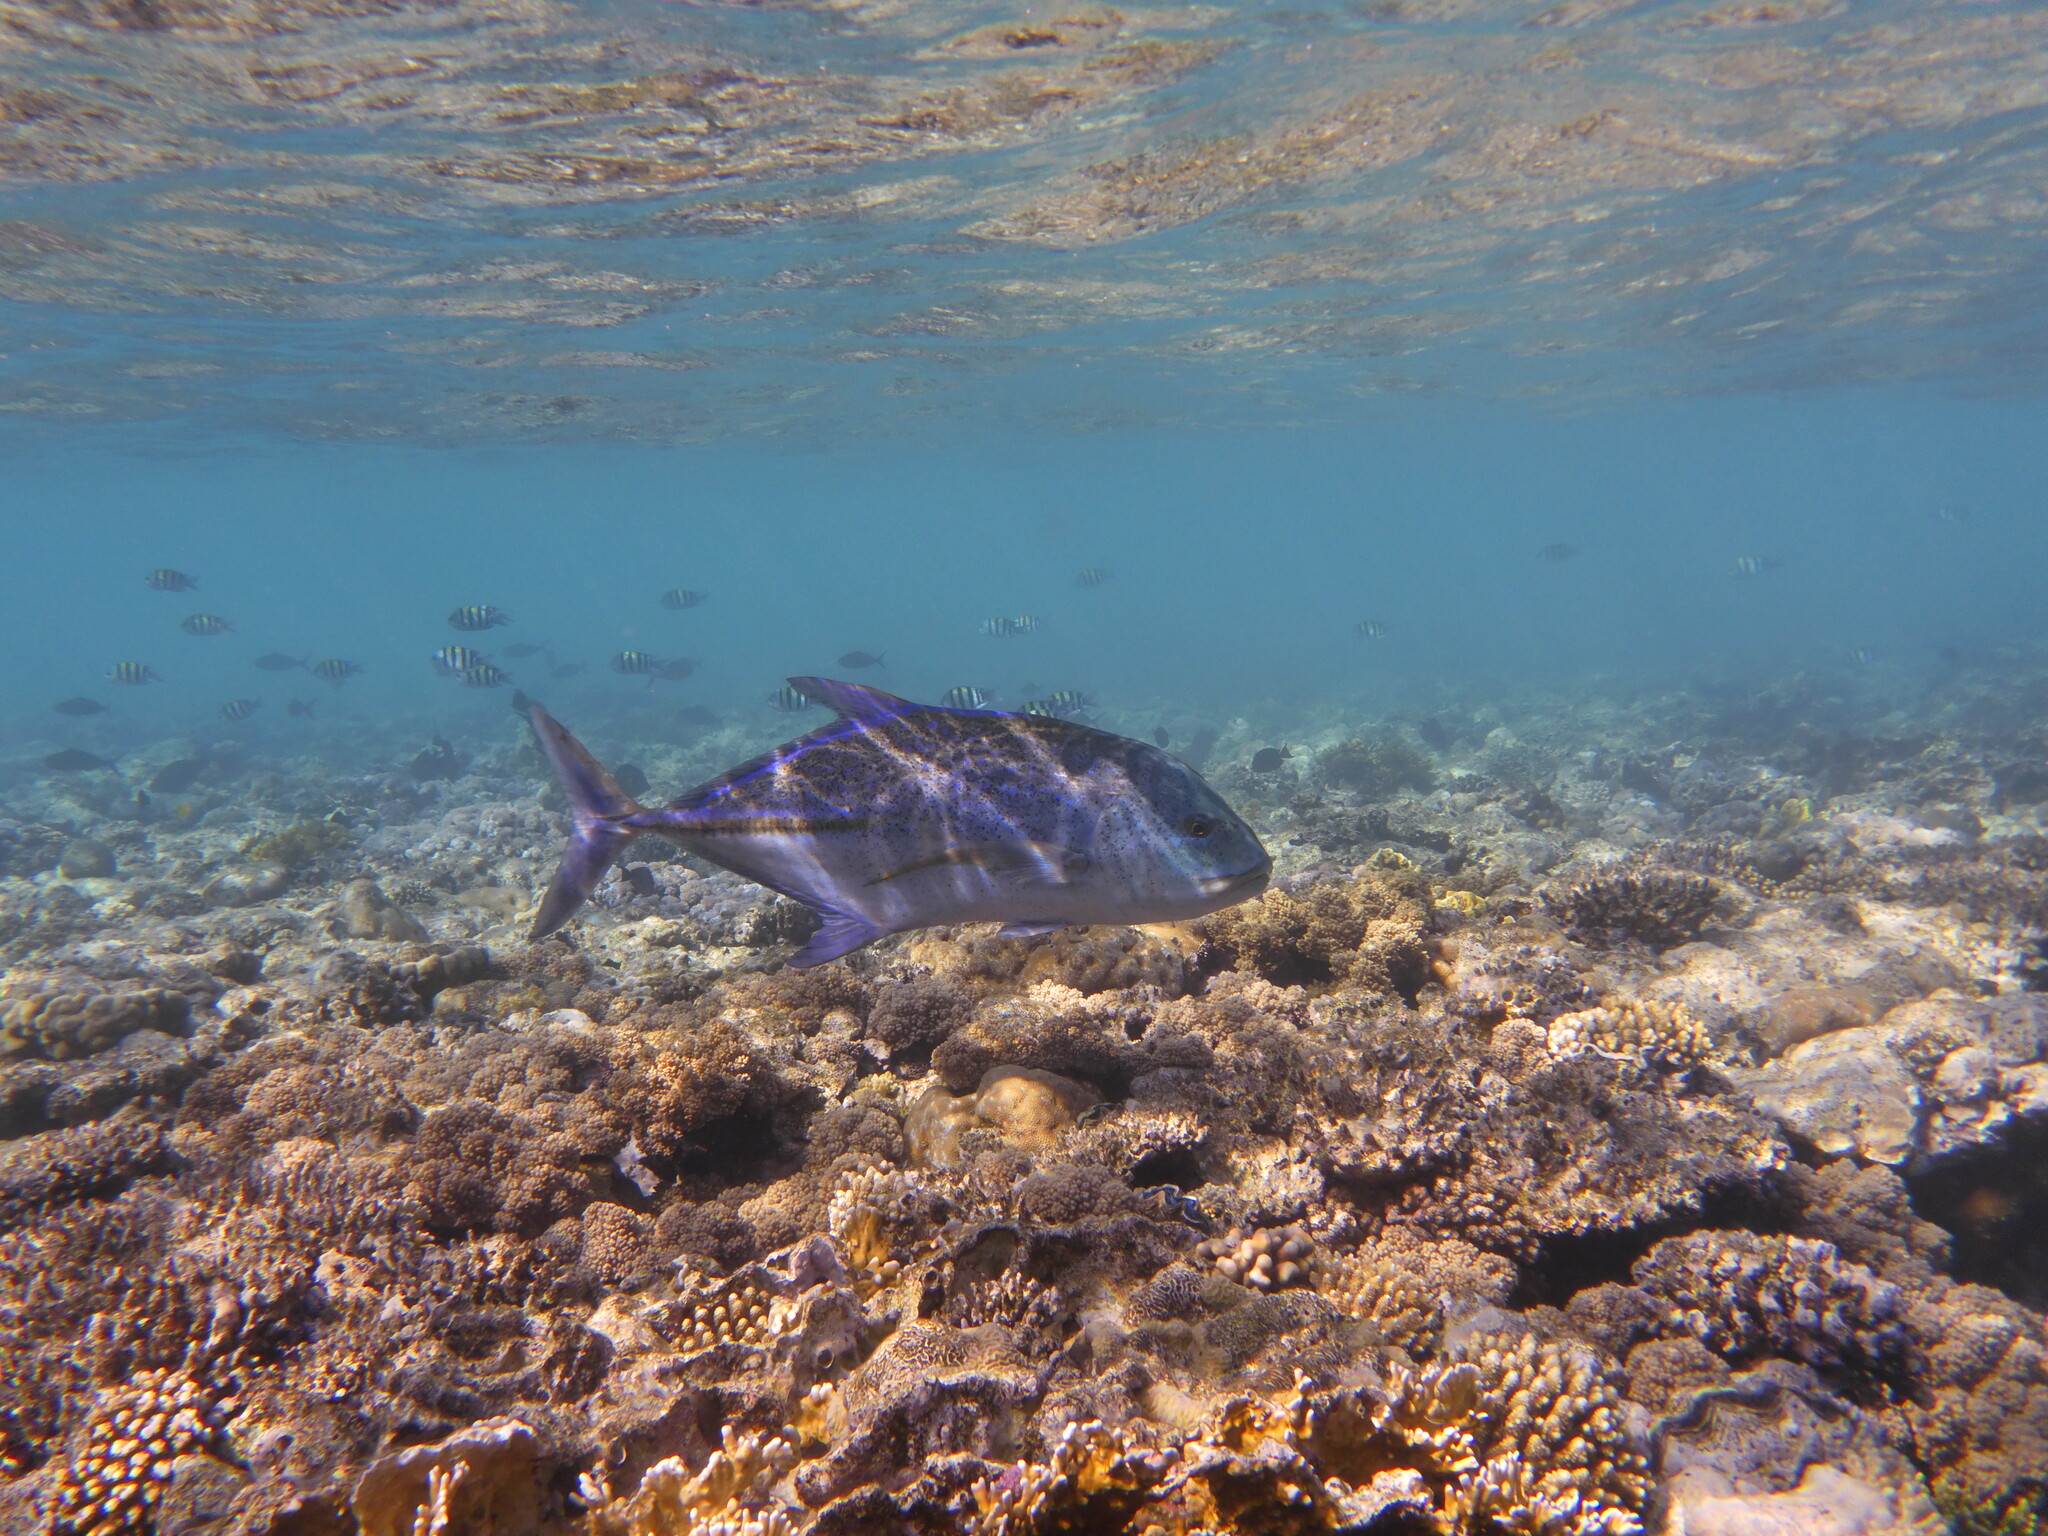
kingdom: Animalia
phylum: Chordata
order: Perciformes
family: Carangidae
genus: Caranx
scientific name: Caranx melampygus
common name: Bluefin trevally
